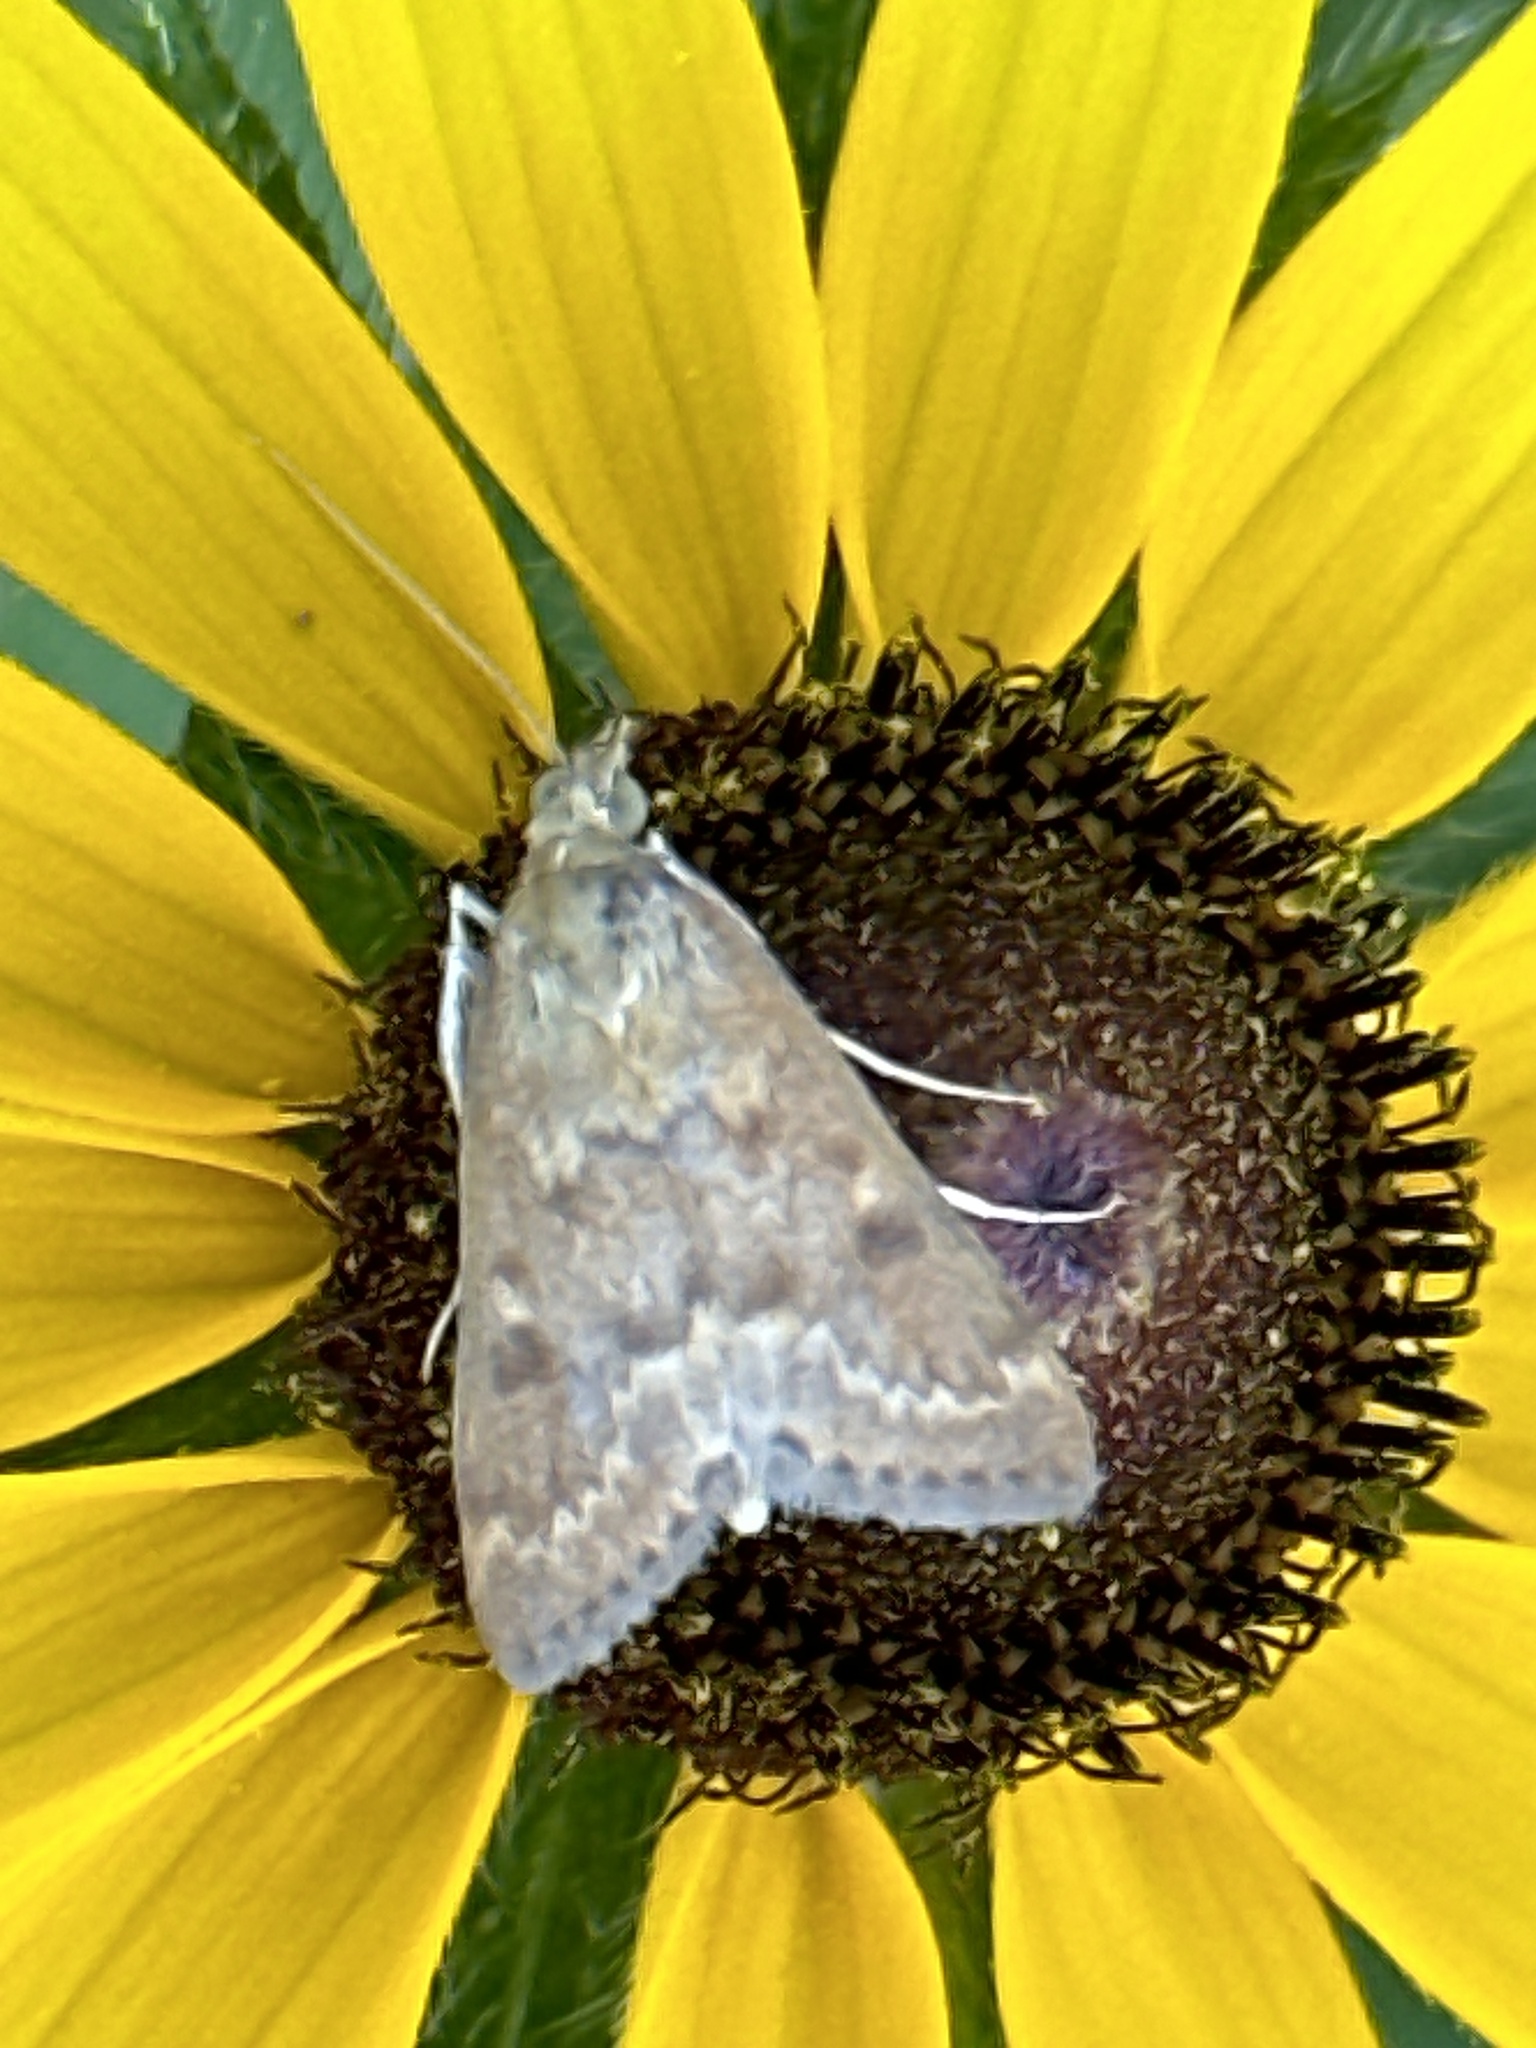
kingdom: Animalia
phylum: Arthropoda
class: Insecta
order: Lepidoptera
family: Crambidae
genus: Achyra
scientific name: Achyra rantalis
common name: Garden webworm
